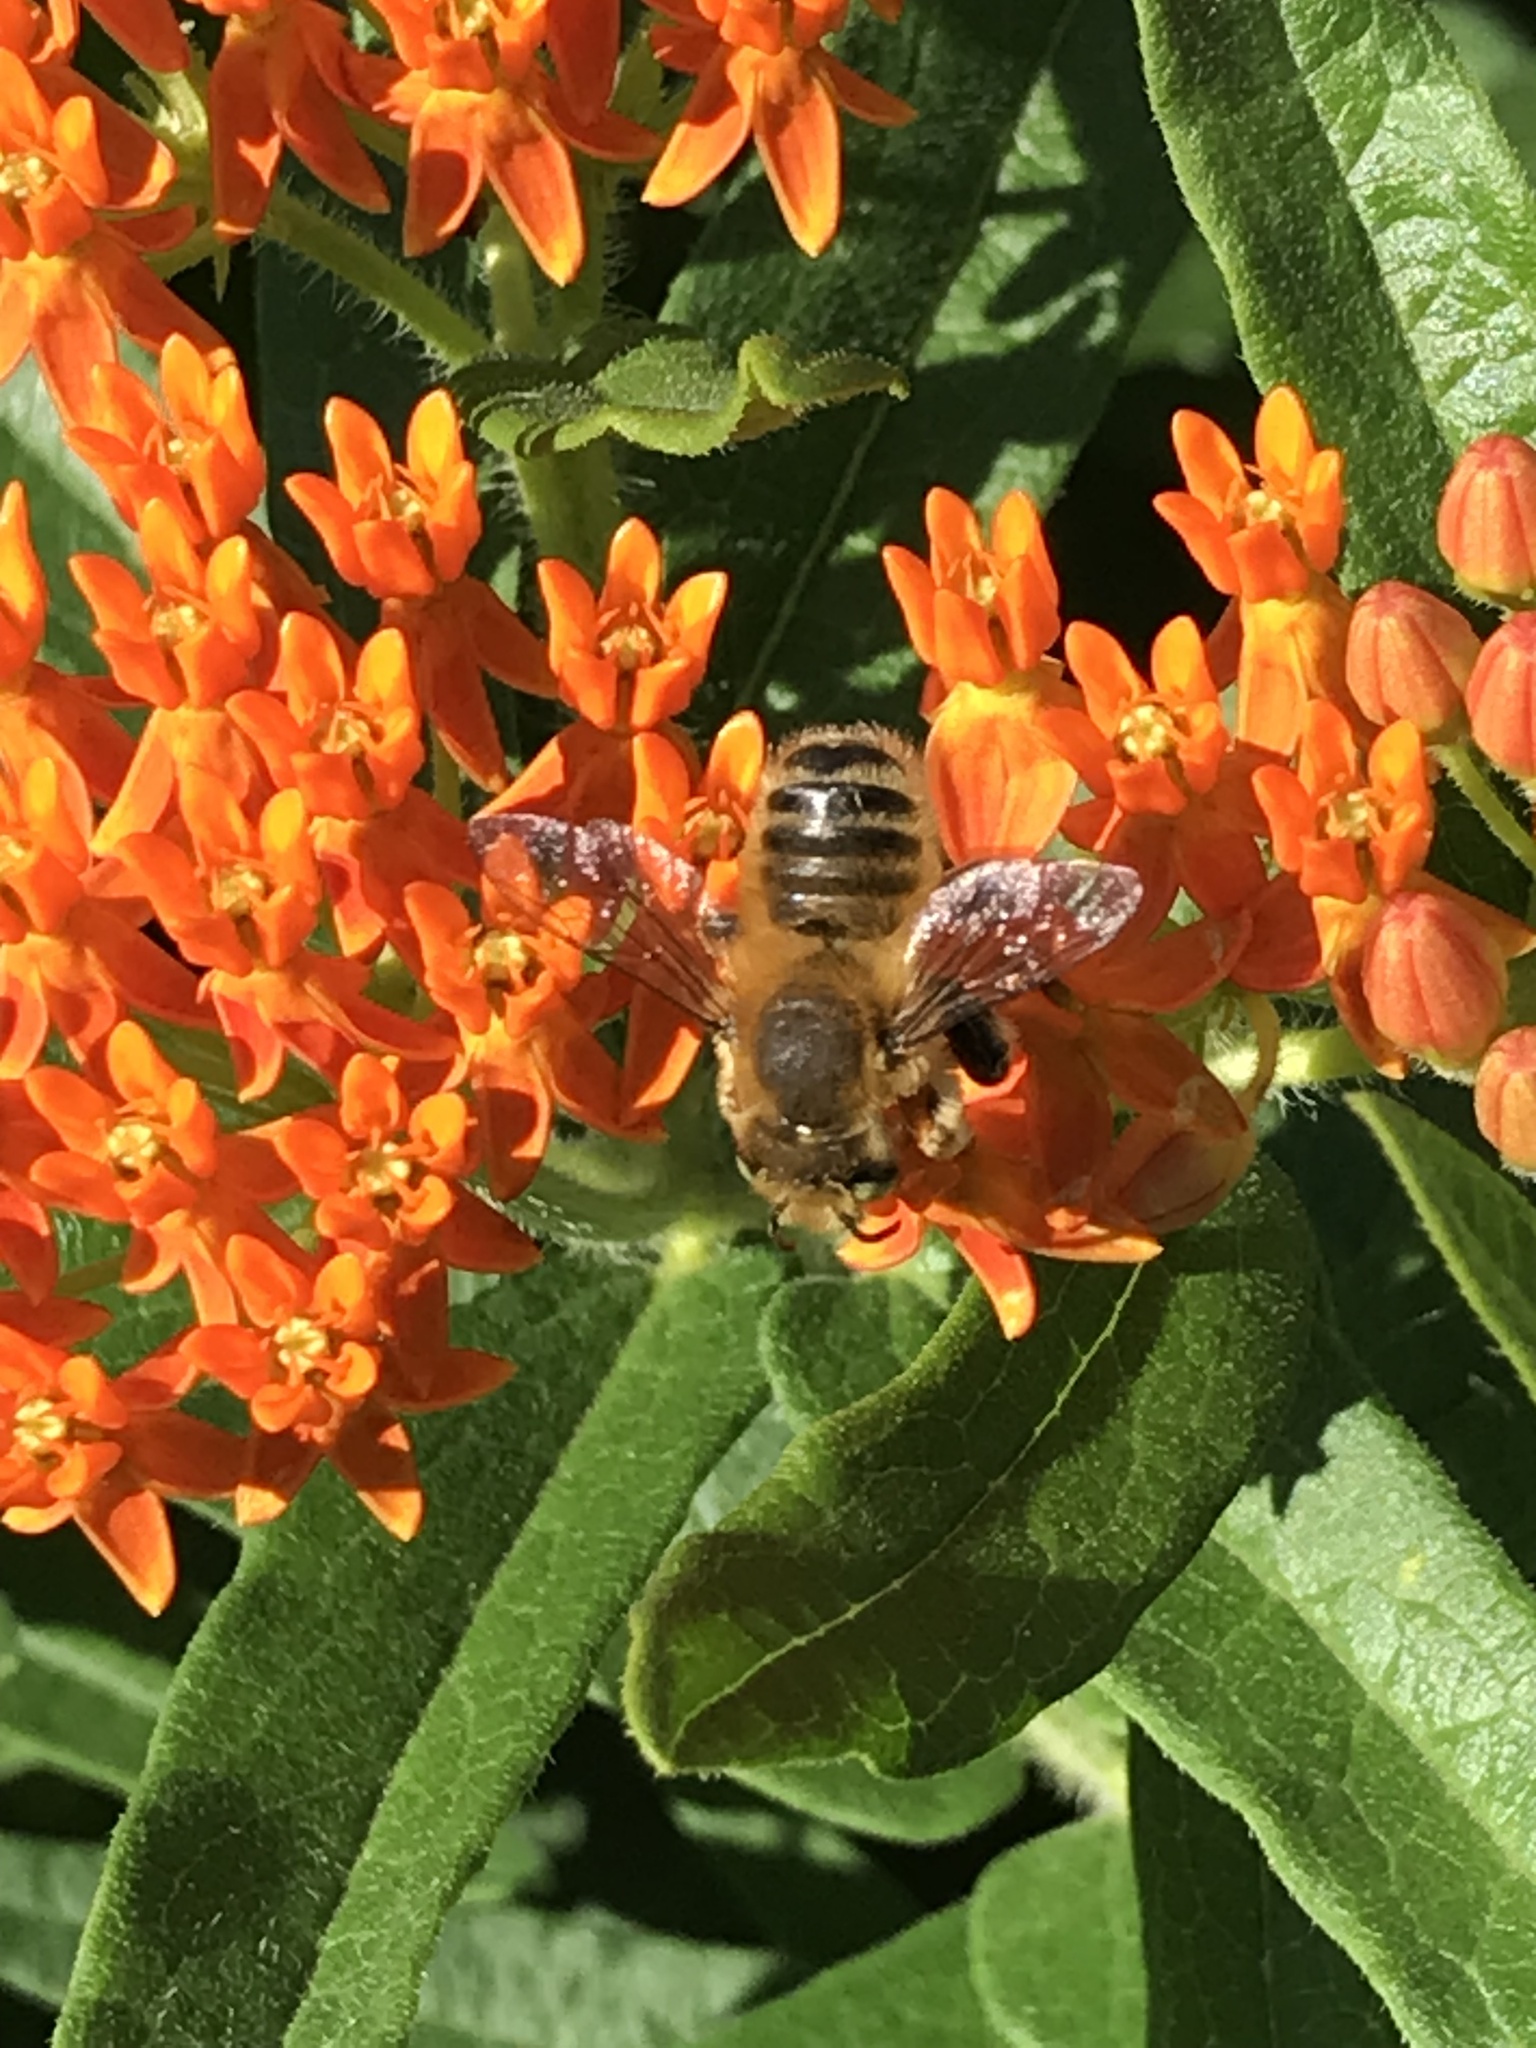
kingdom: Animalia
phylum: Arthropoda
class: Insecta
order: Hymenoptera
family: Megachilidae
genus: Megachile
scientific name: Megachile latimanus
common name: Leafcutting bee
